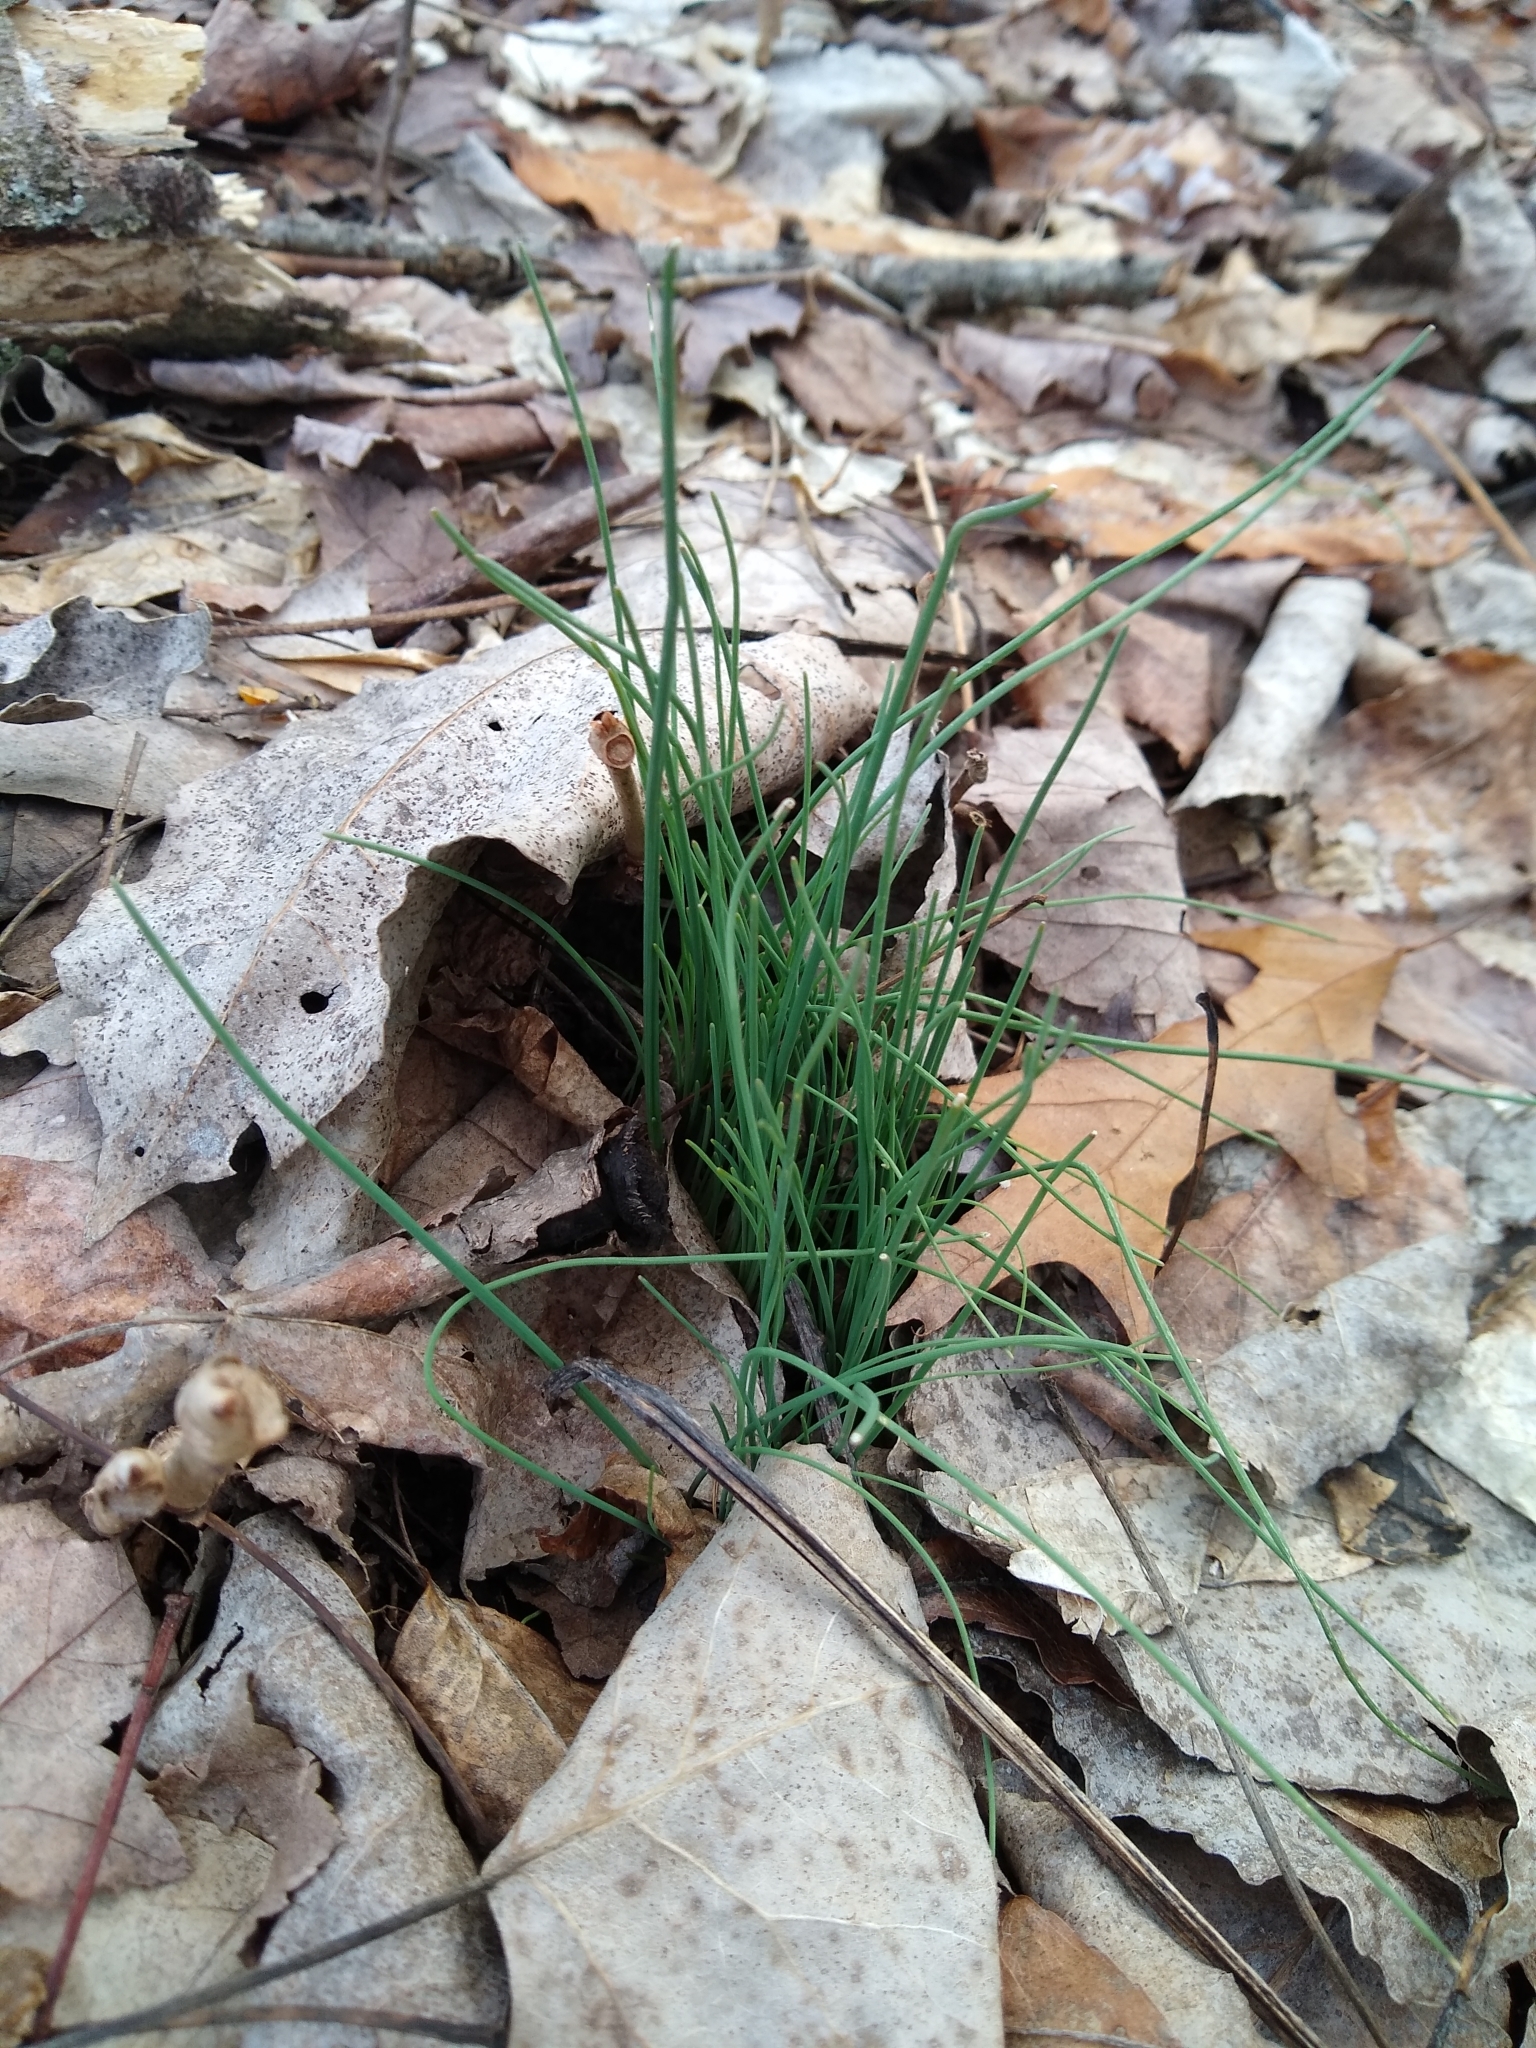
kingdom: Plantae
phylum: Tracheophyta
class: Liliopsida
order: Asparagales
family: Amaryllidaceae
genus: Allium
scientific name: Allium vineale
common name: Crow garlic
